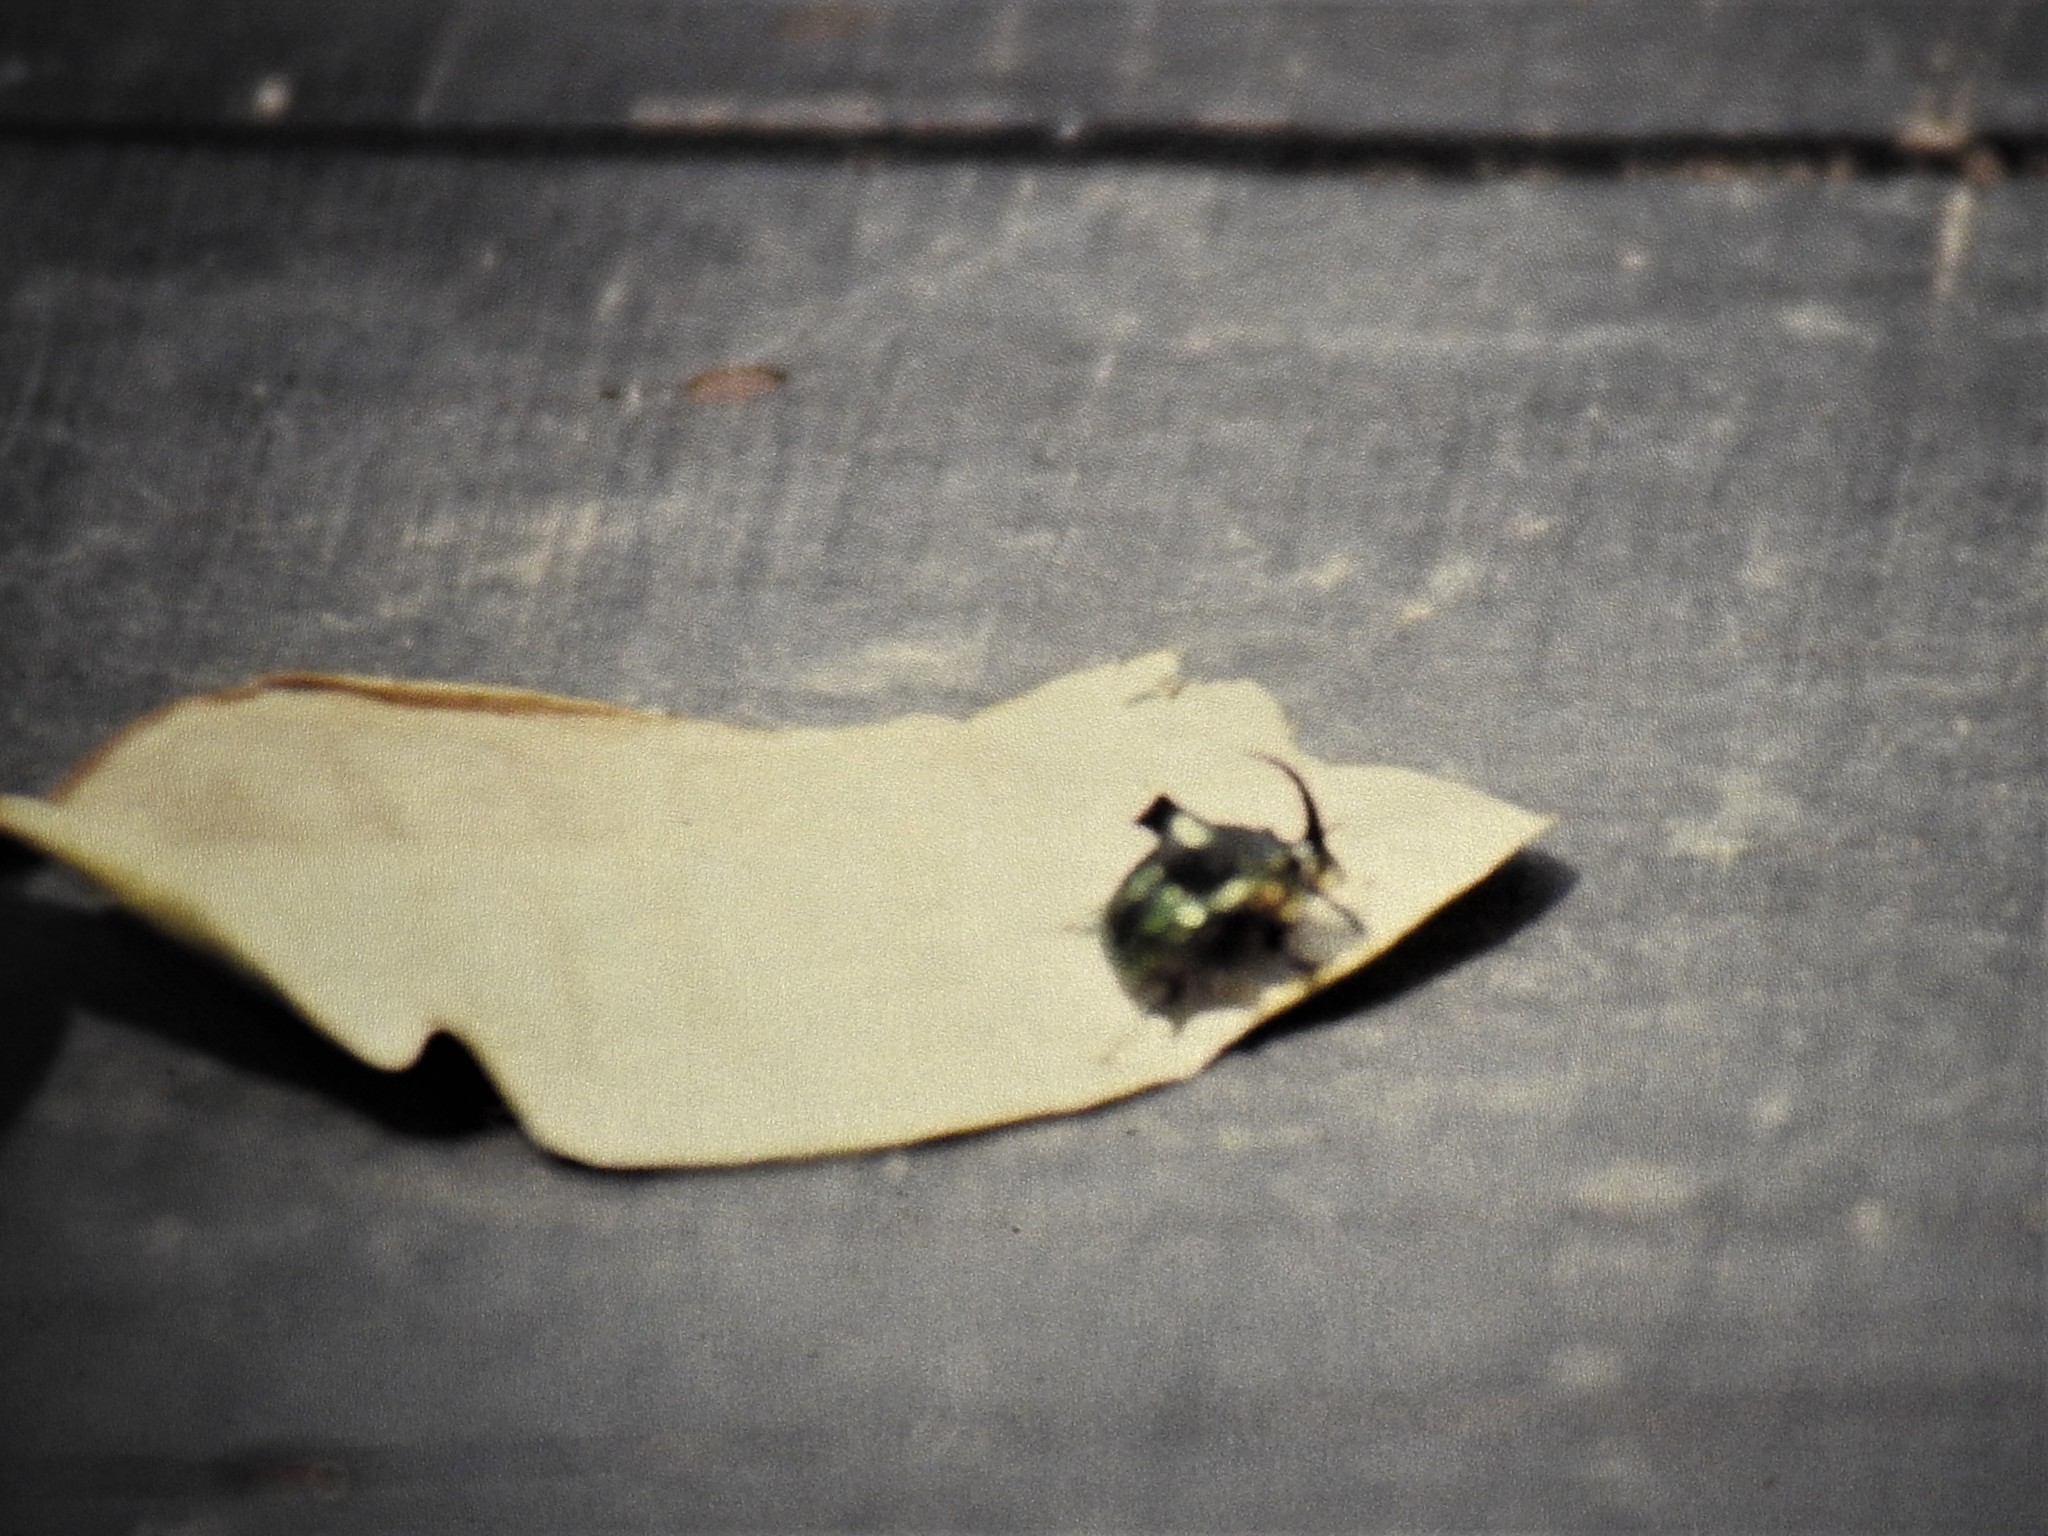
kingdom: Animalia
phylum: Arthropoda
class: Insecta
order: Coleoptera
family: Scarabaeidae
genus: Phanaeus
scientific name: Phanaeus excelsus
